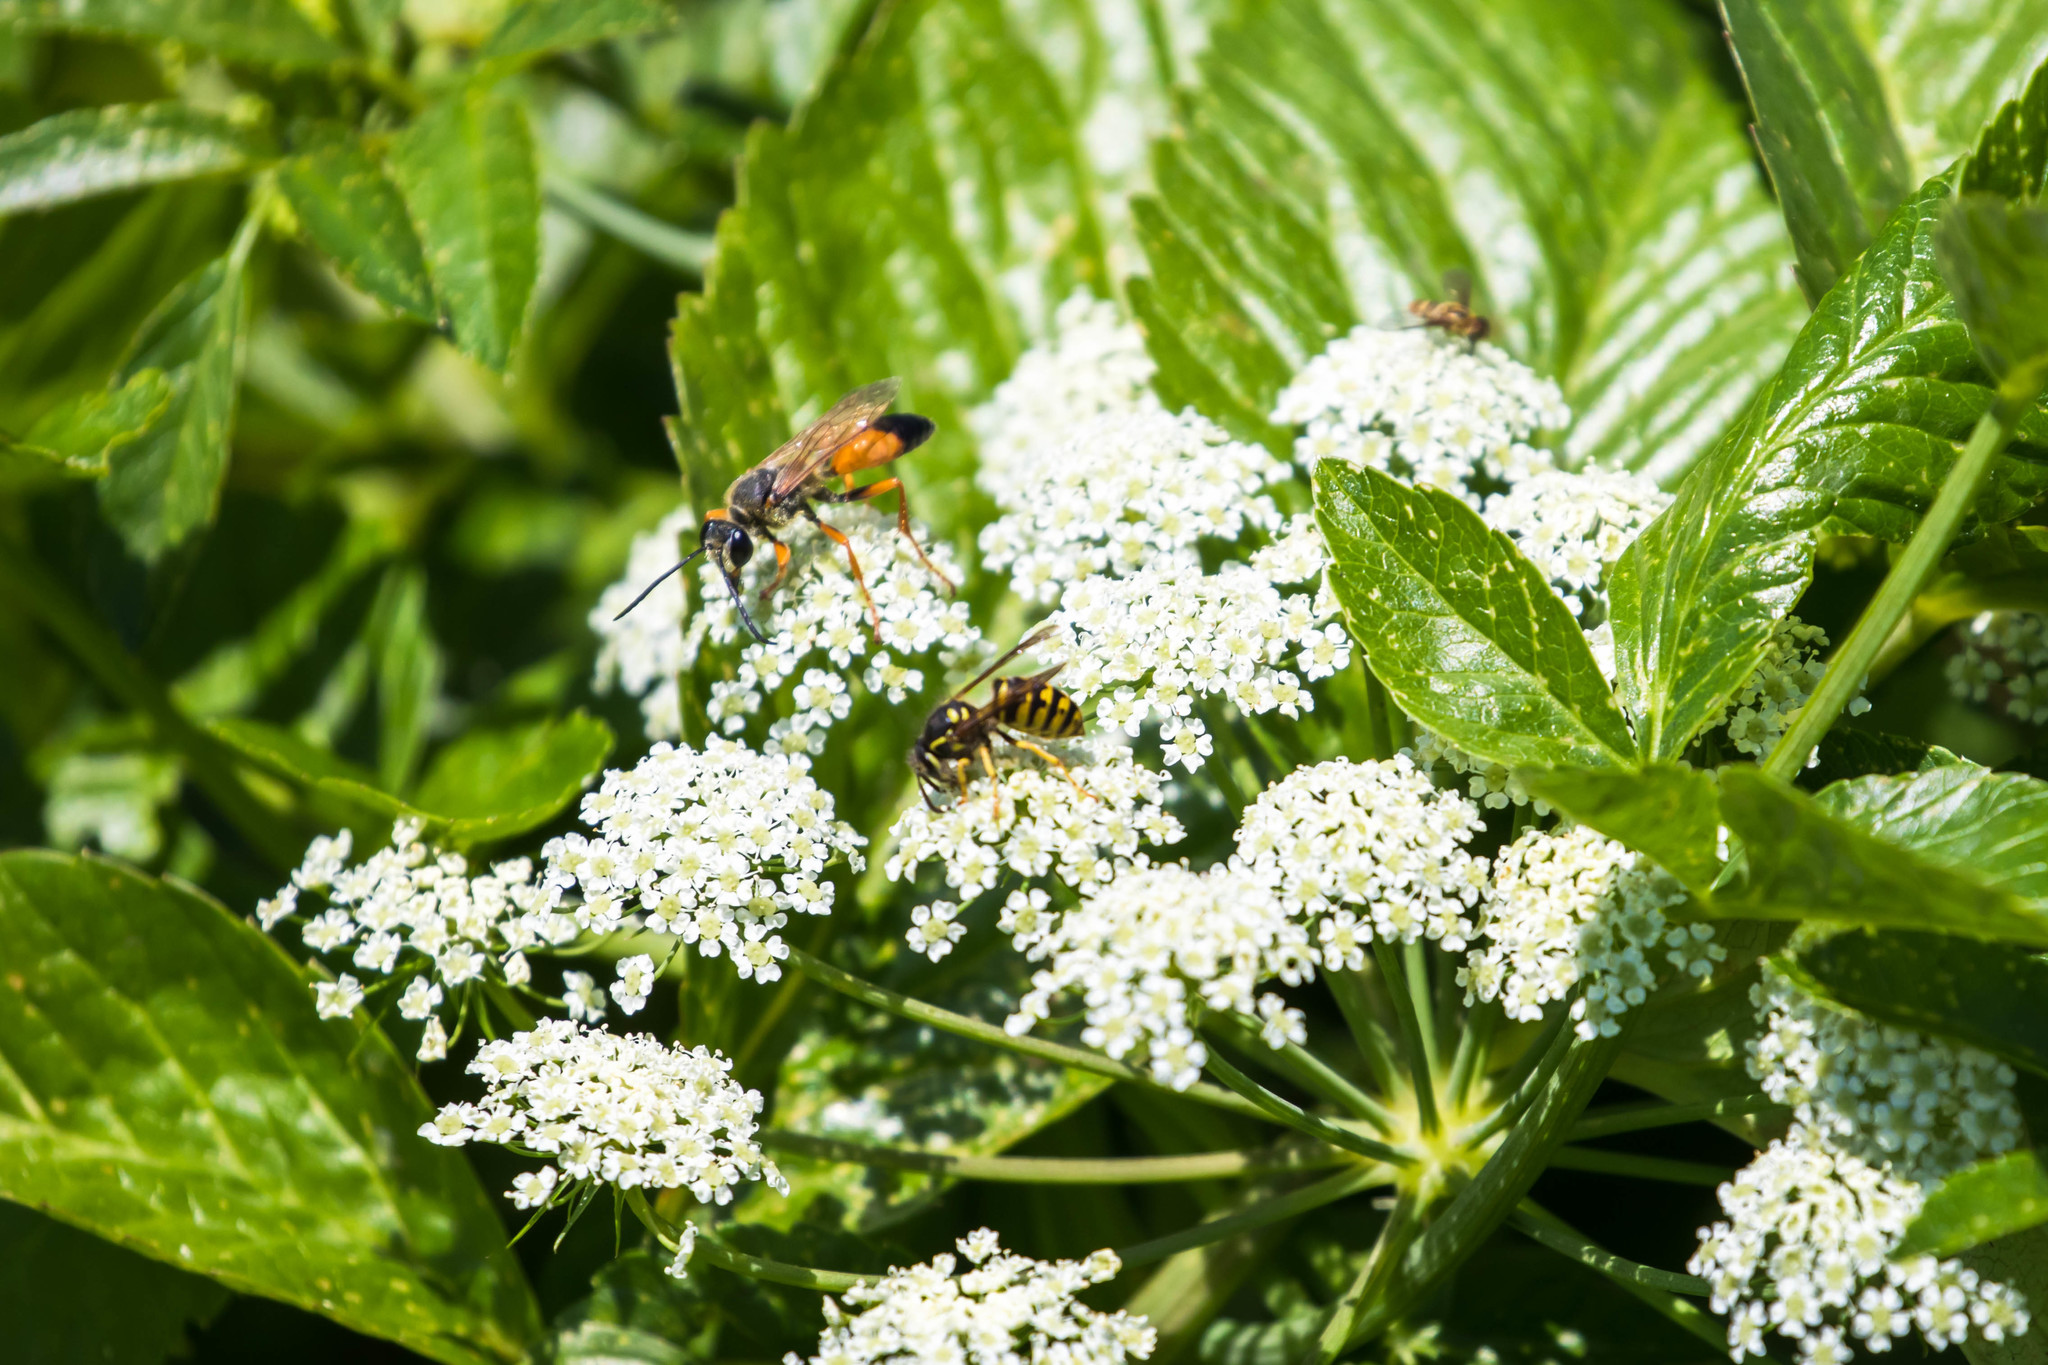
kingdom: Animalia
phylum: Arthropoda
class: Insecta
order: Hymenoptera
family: Sphecidae
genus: Sphex
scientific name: Sphex ichneumoneus
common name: Great golden digger wasp
